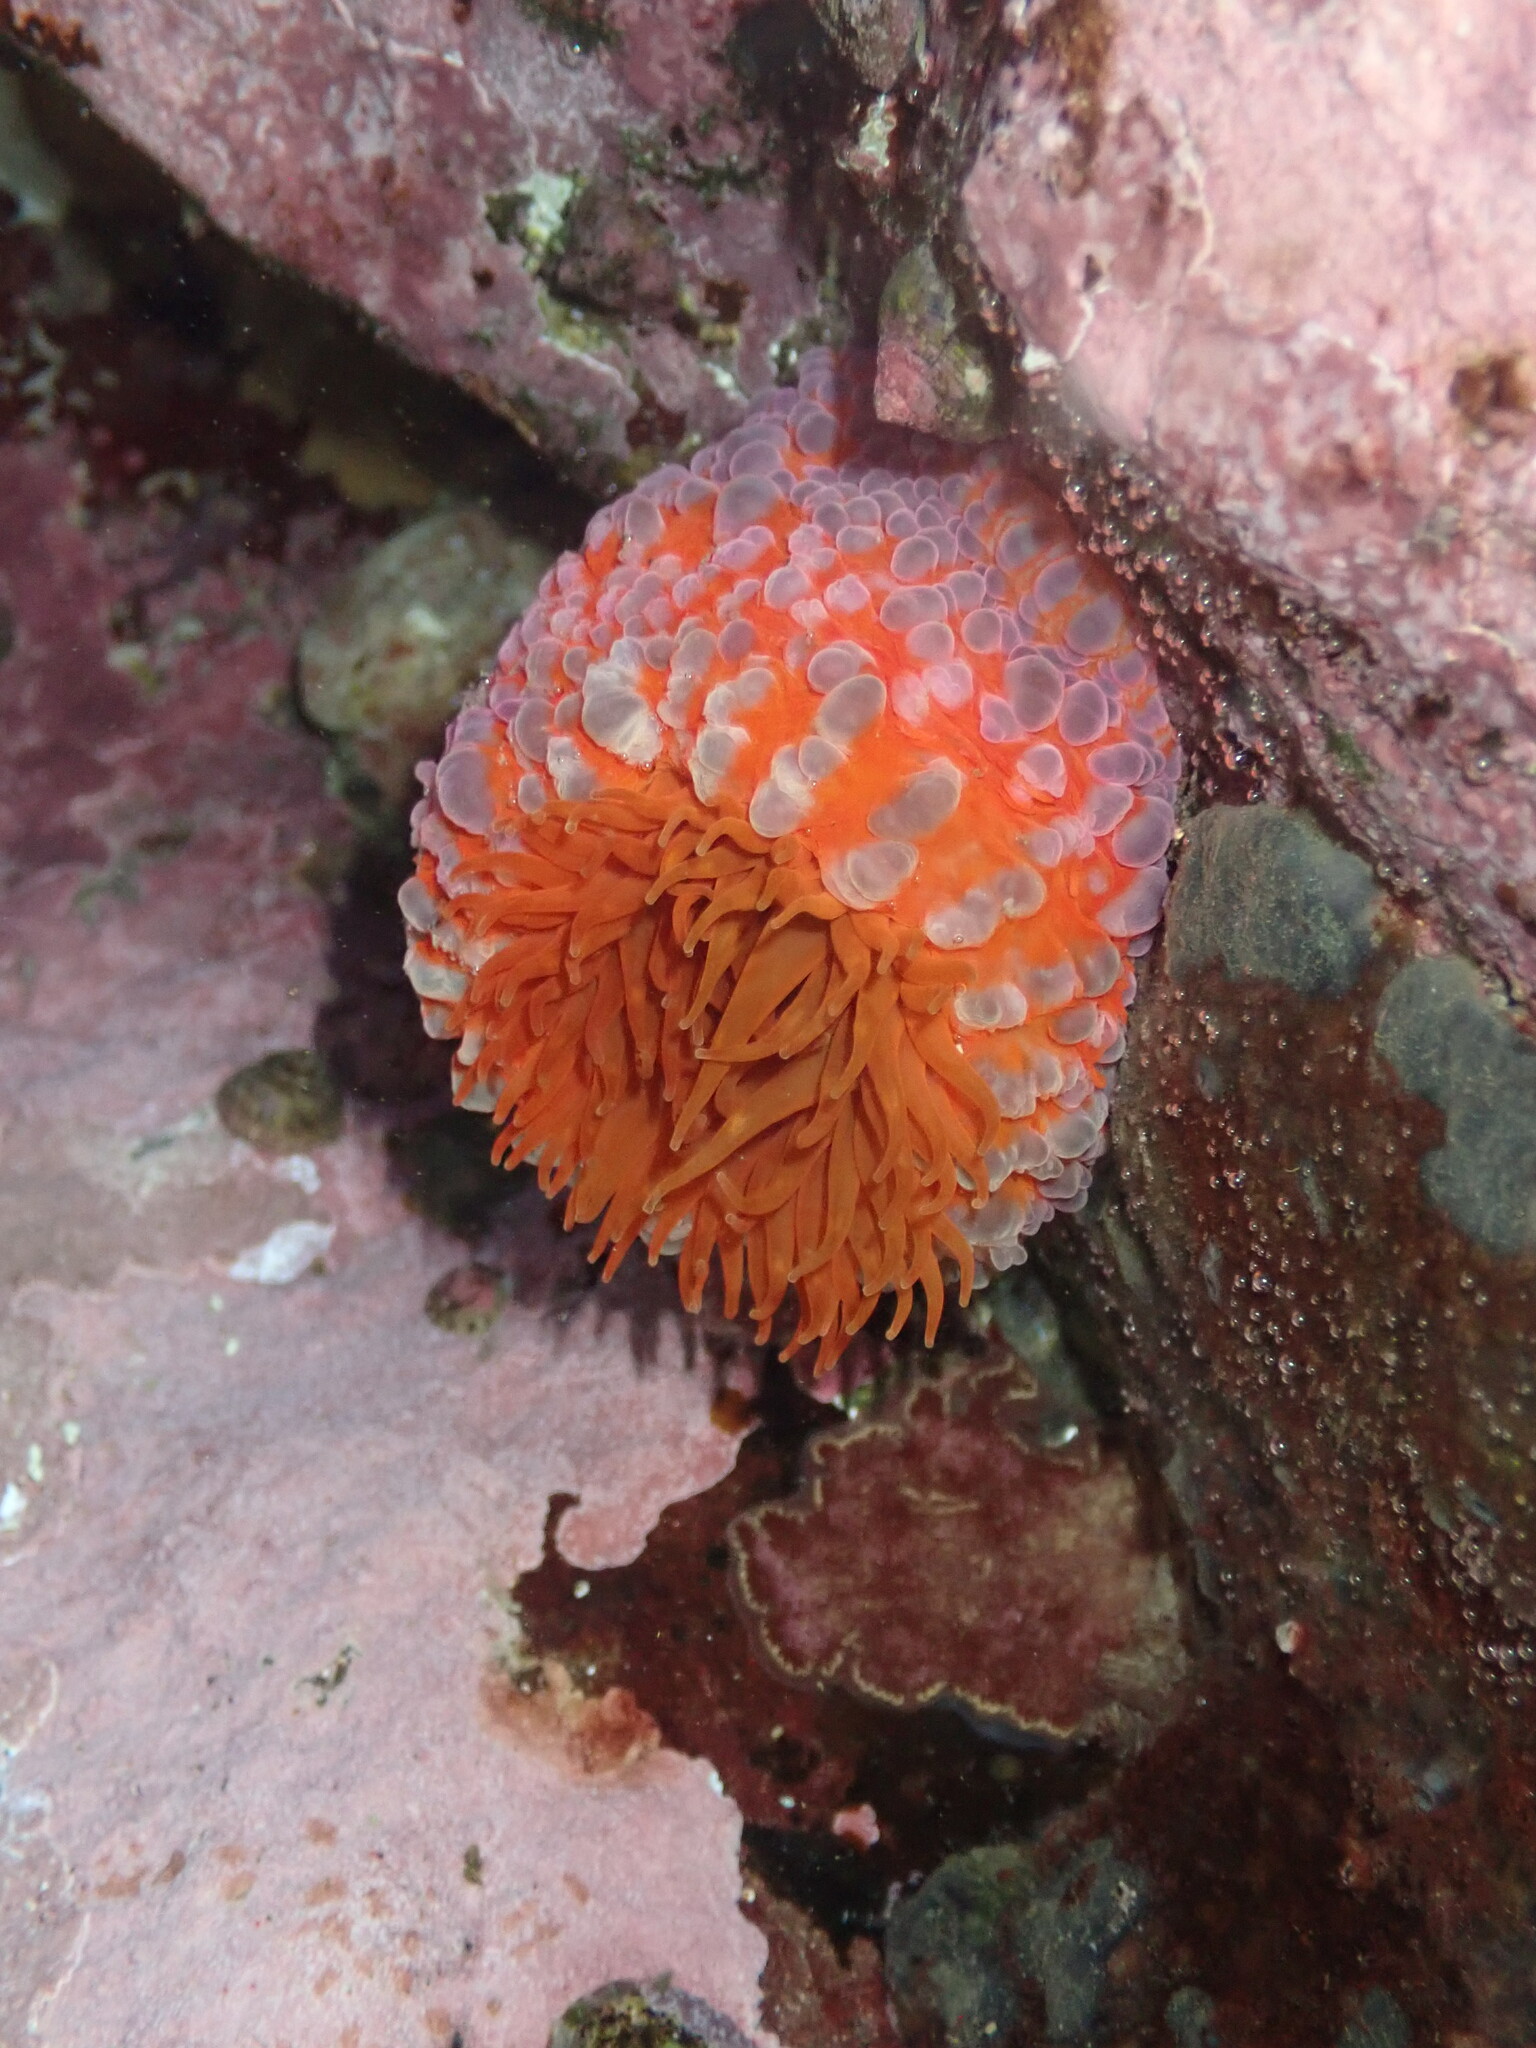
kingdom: Animalia
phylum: Cnidaria
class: Anthozoa
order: Actiniaria
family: Actiniidae
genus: Phlyctenanthus
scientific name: Phlyctenanthus australis
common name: Southern anemone
